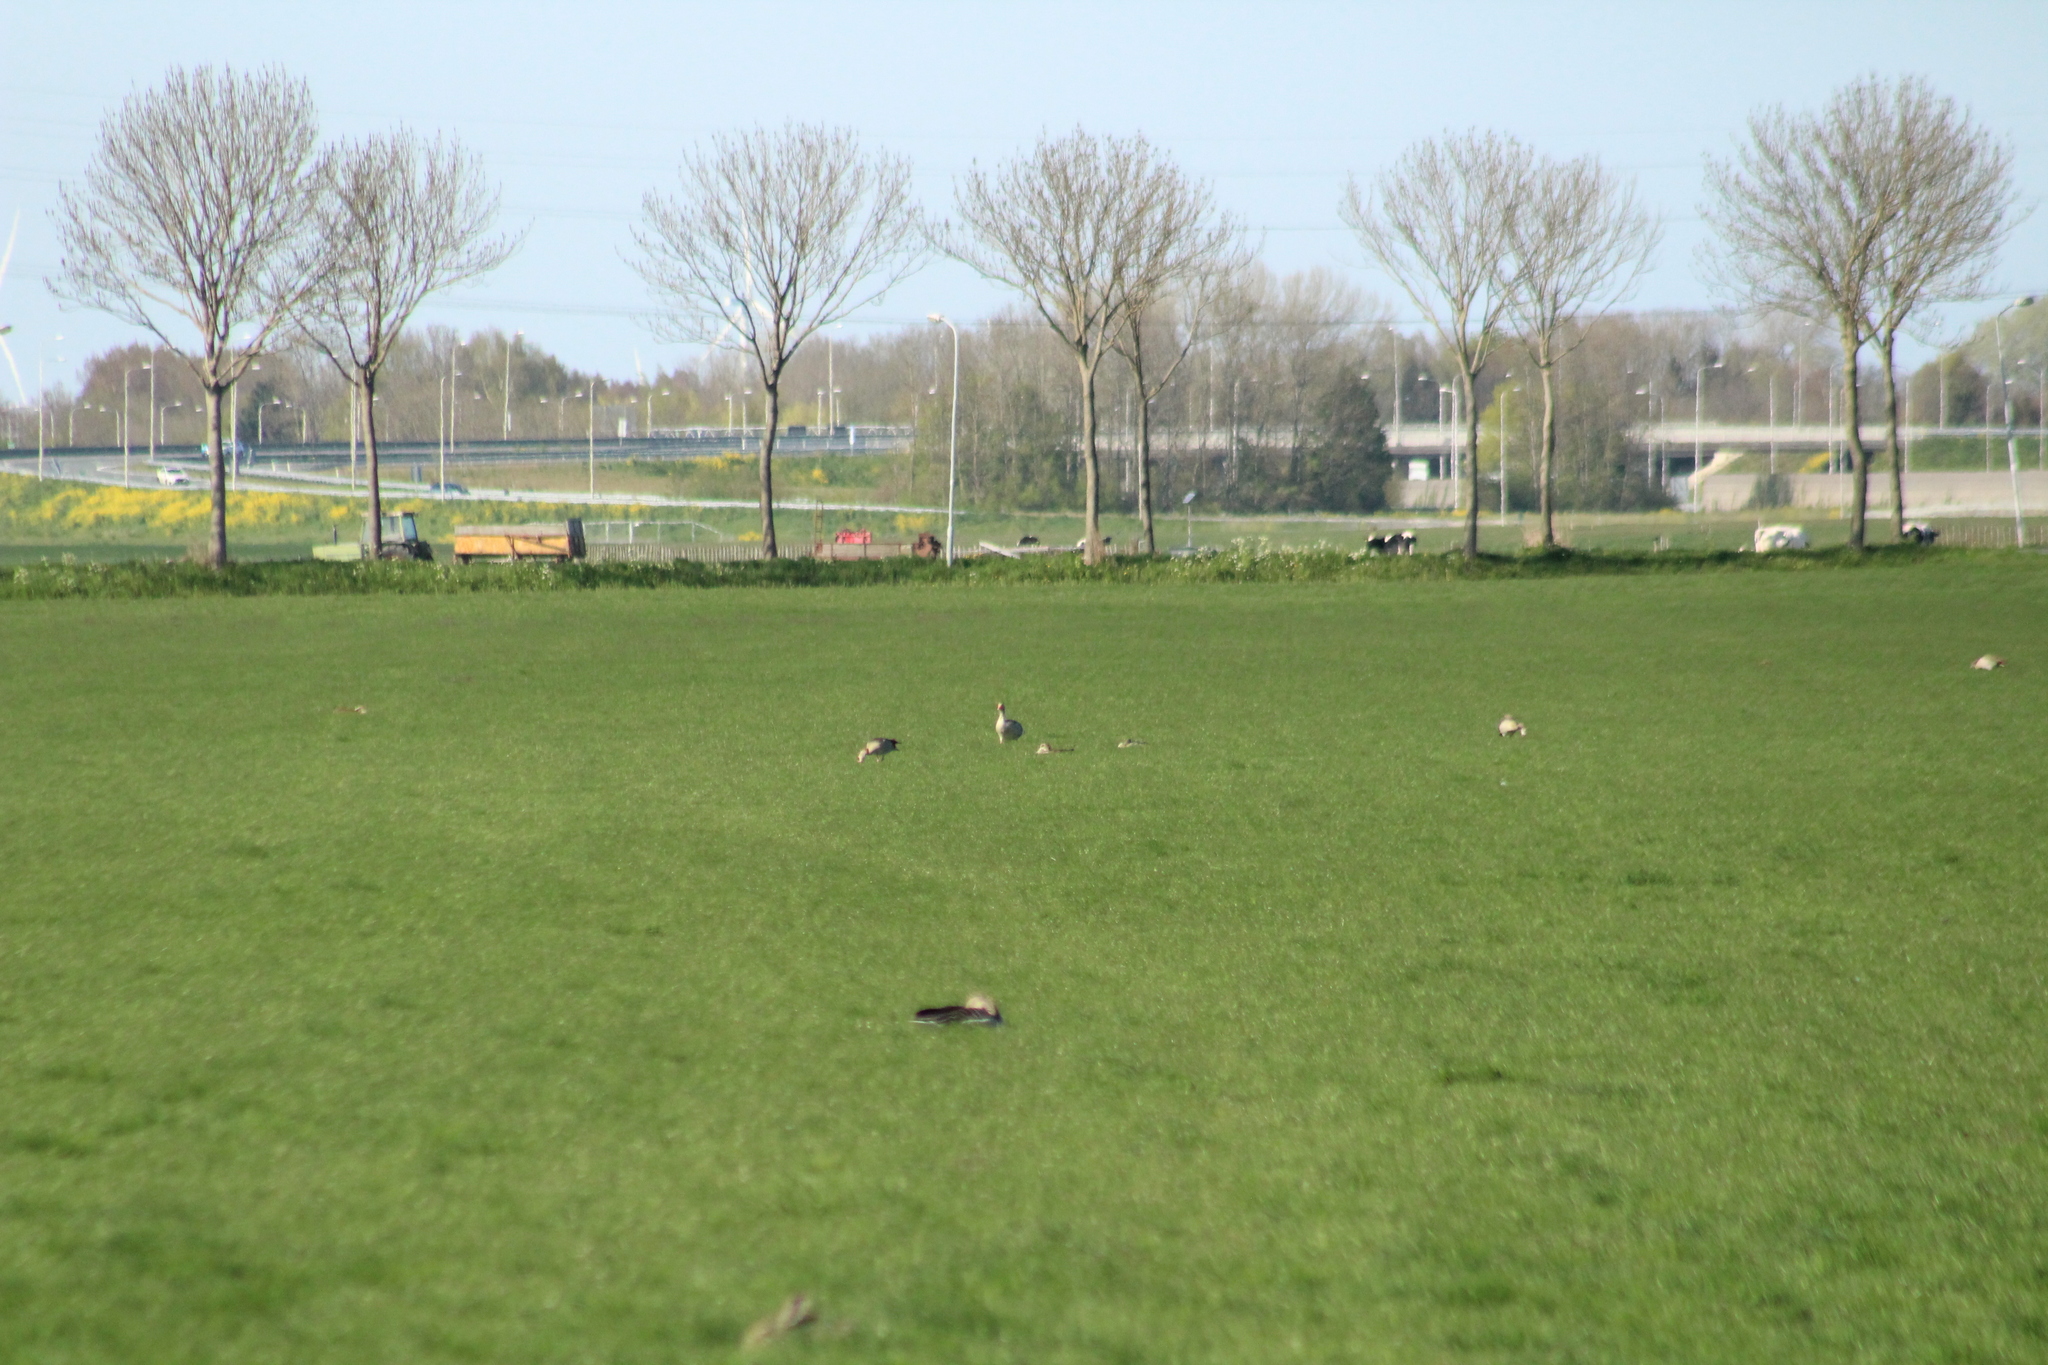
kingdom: Animalia
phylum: Chordata
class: Aves
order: Anseriformes
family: Anatidae
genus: Anser
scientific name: Anser anser
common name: Greylag goose
